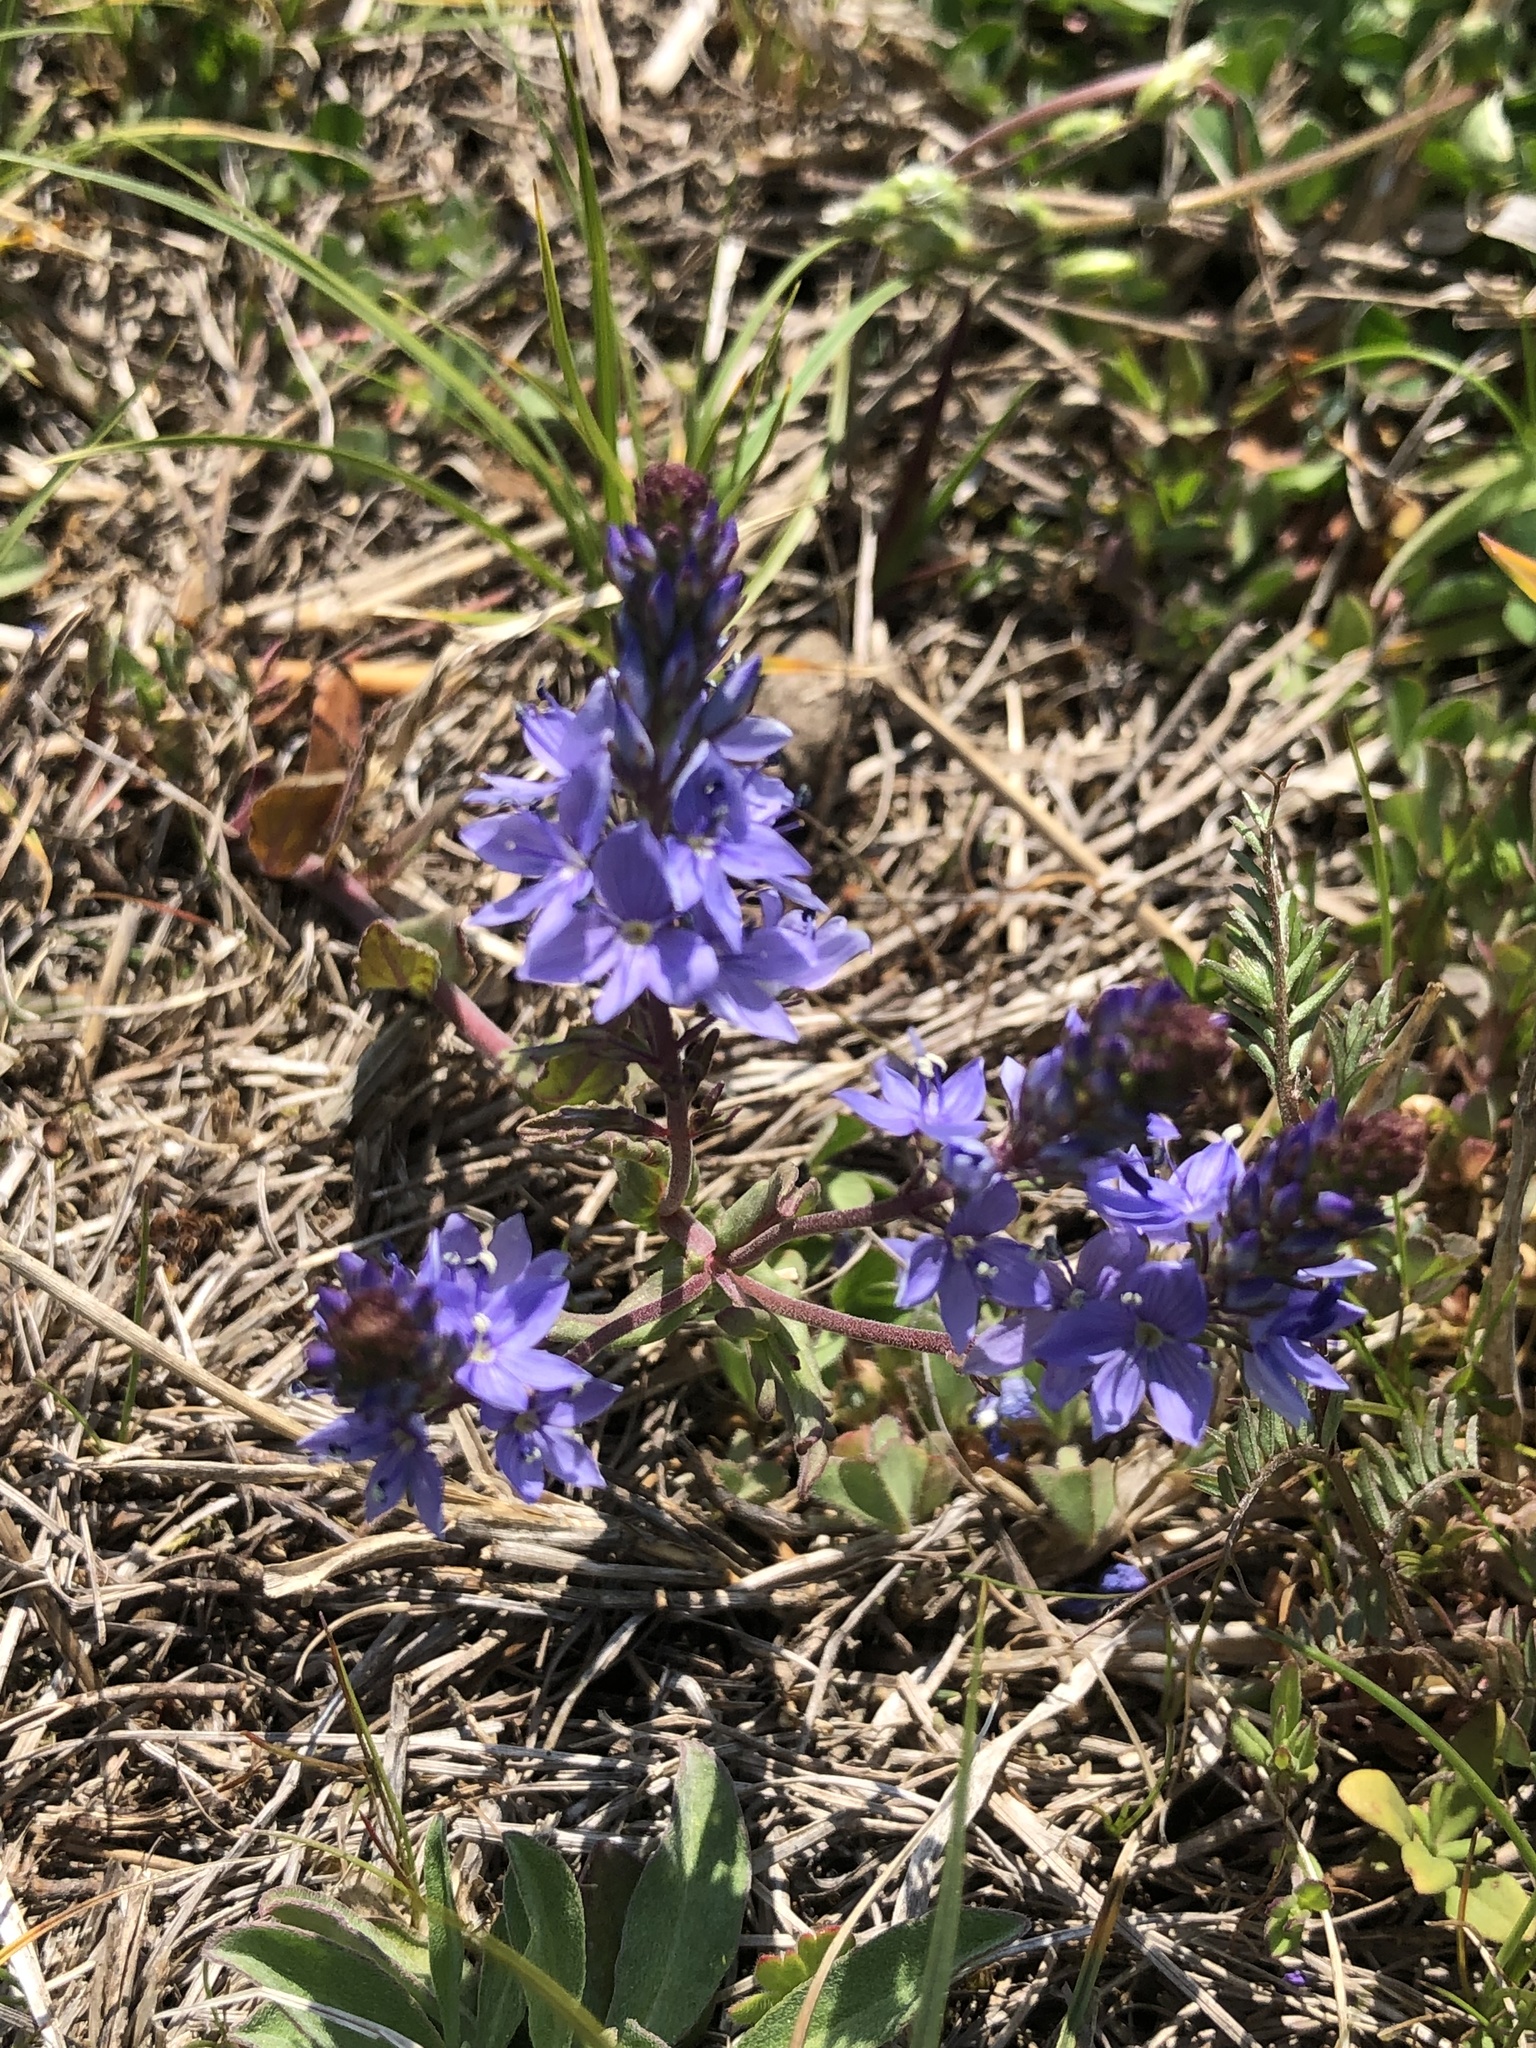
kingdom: Plantae
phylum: Tracheophyta
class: Magnoliopsida
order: Lamiales
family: Plantaginaceae
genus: Veronica
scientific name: Veronica prostrata
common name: Prostrate speedwell
